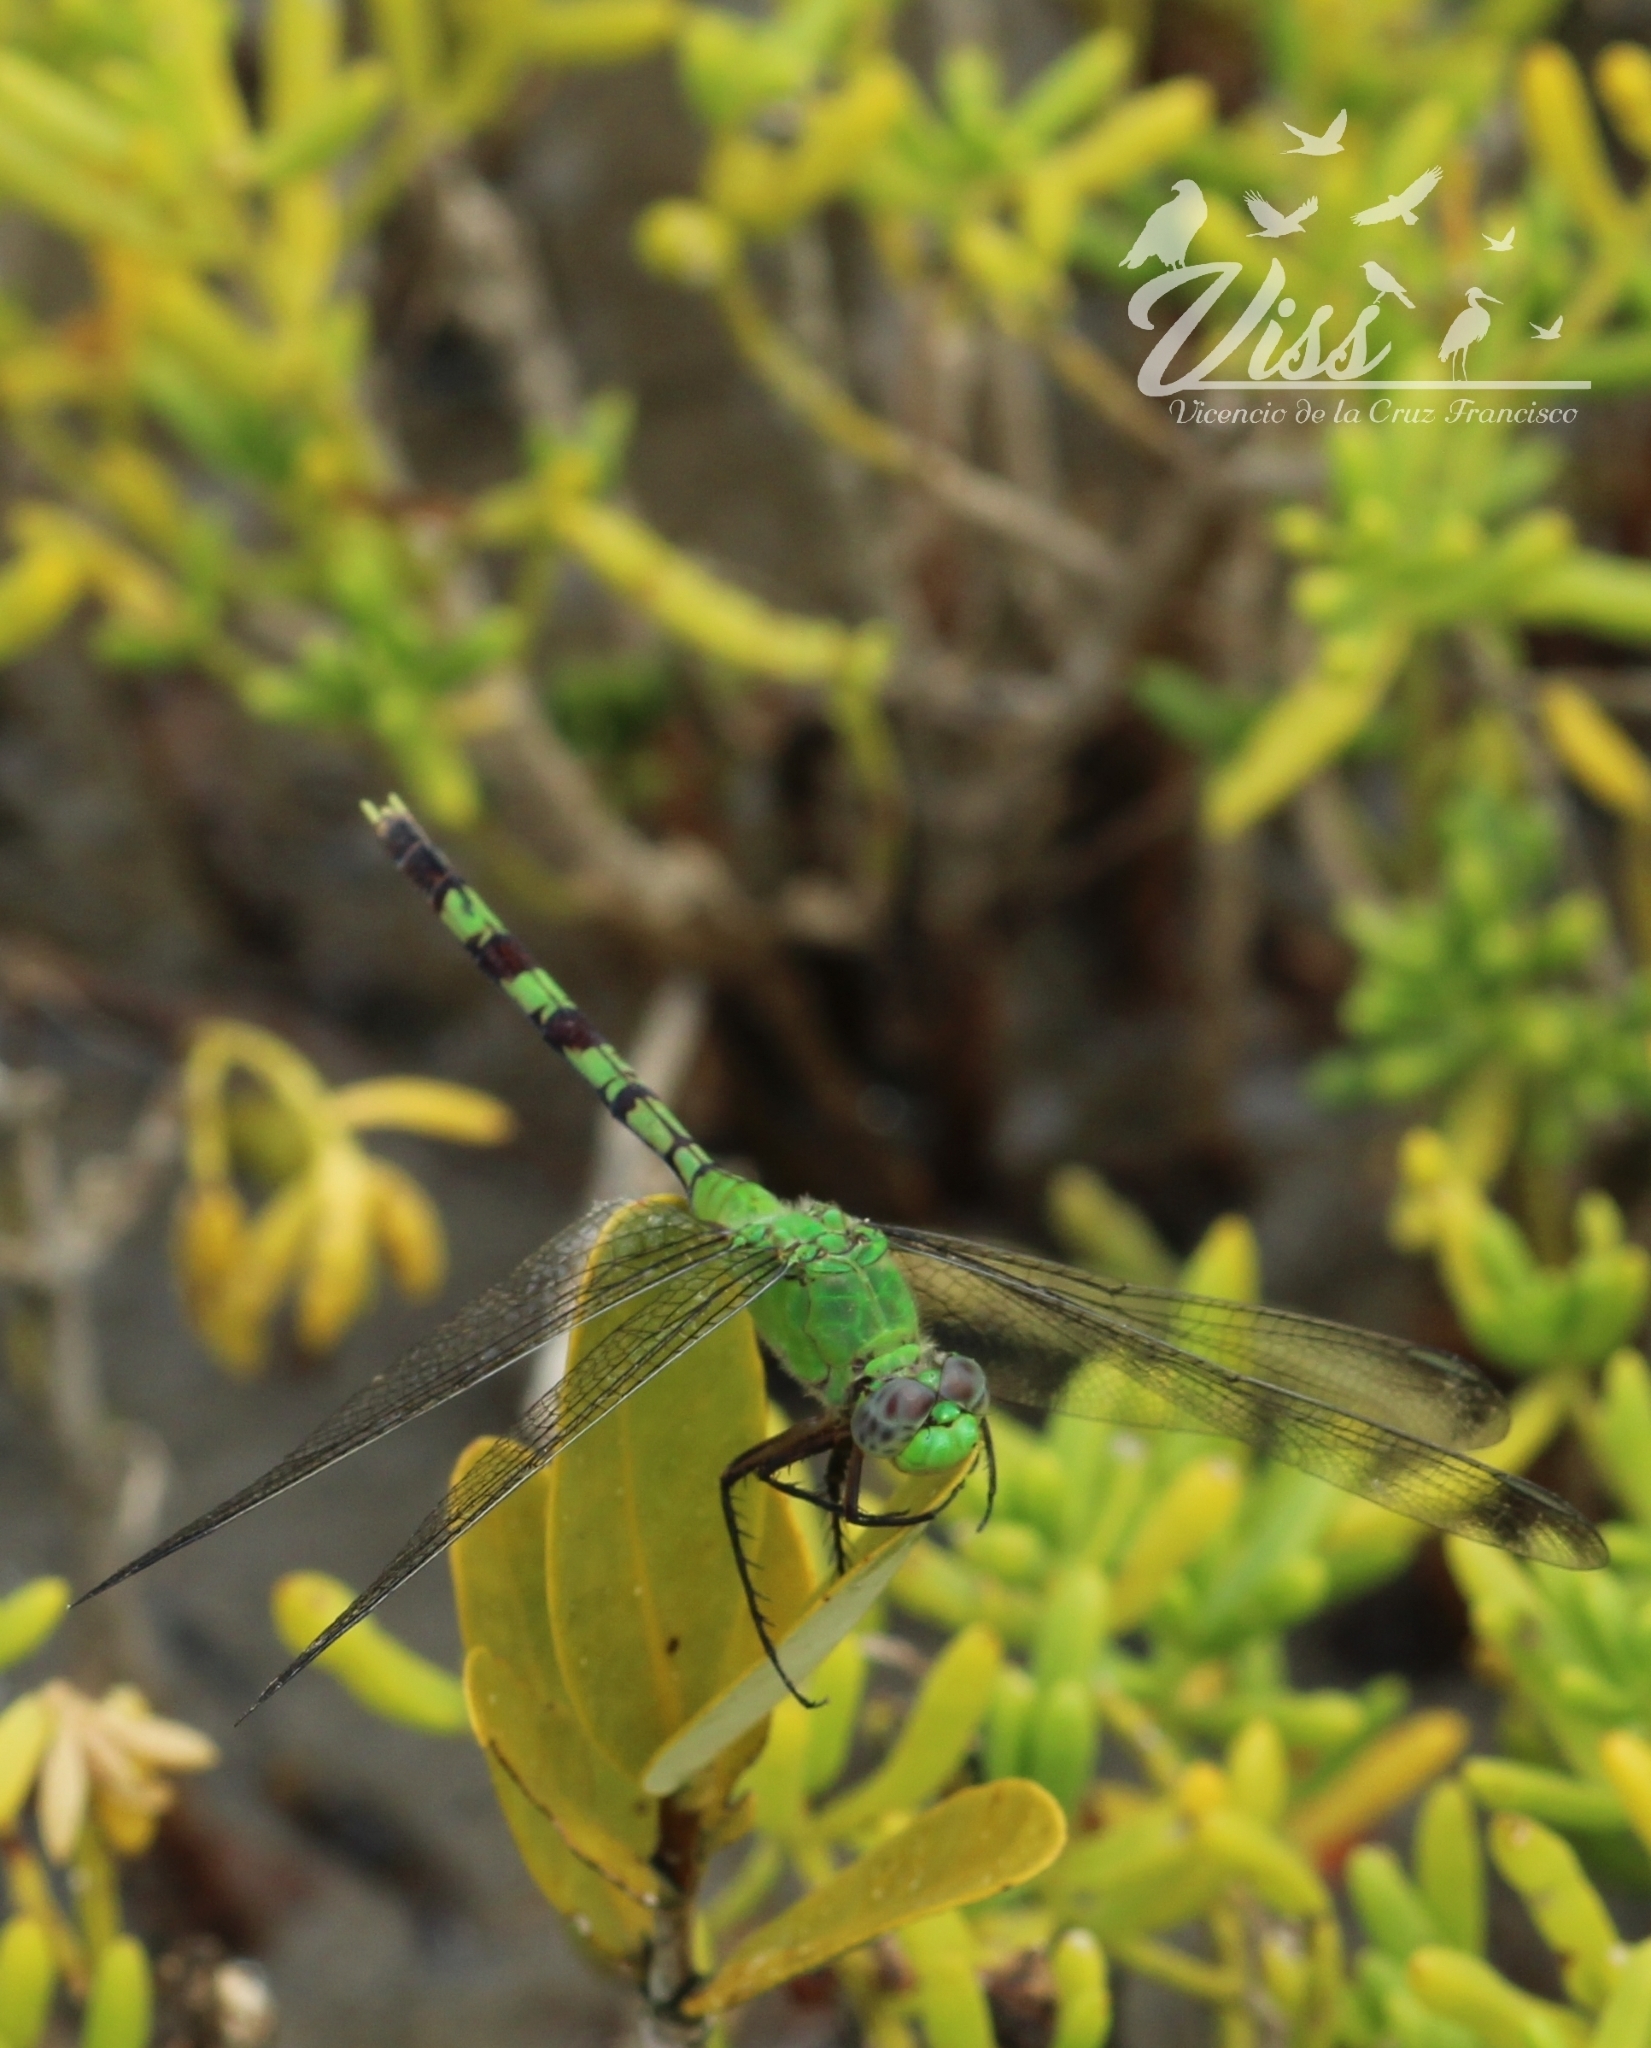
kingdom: Animalia
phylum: Arthropoda
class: Insecta
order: Odonata
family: Libellulidae
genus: Erythemis
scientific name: Erythemis vesiculosa
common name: Great pondhawk
